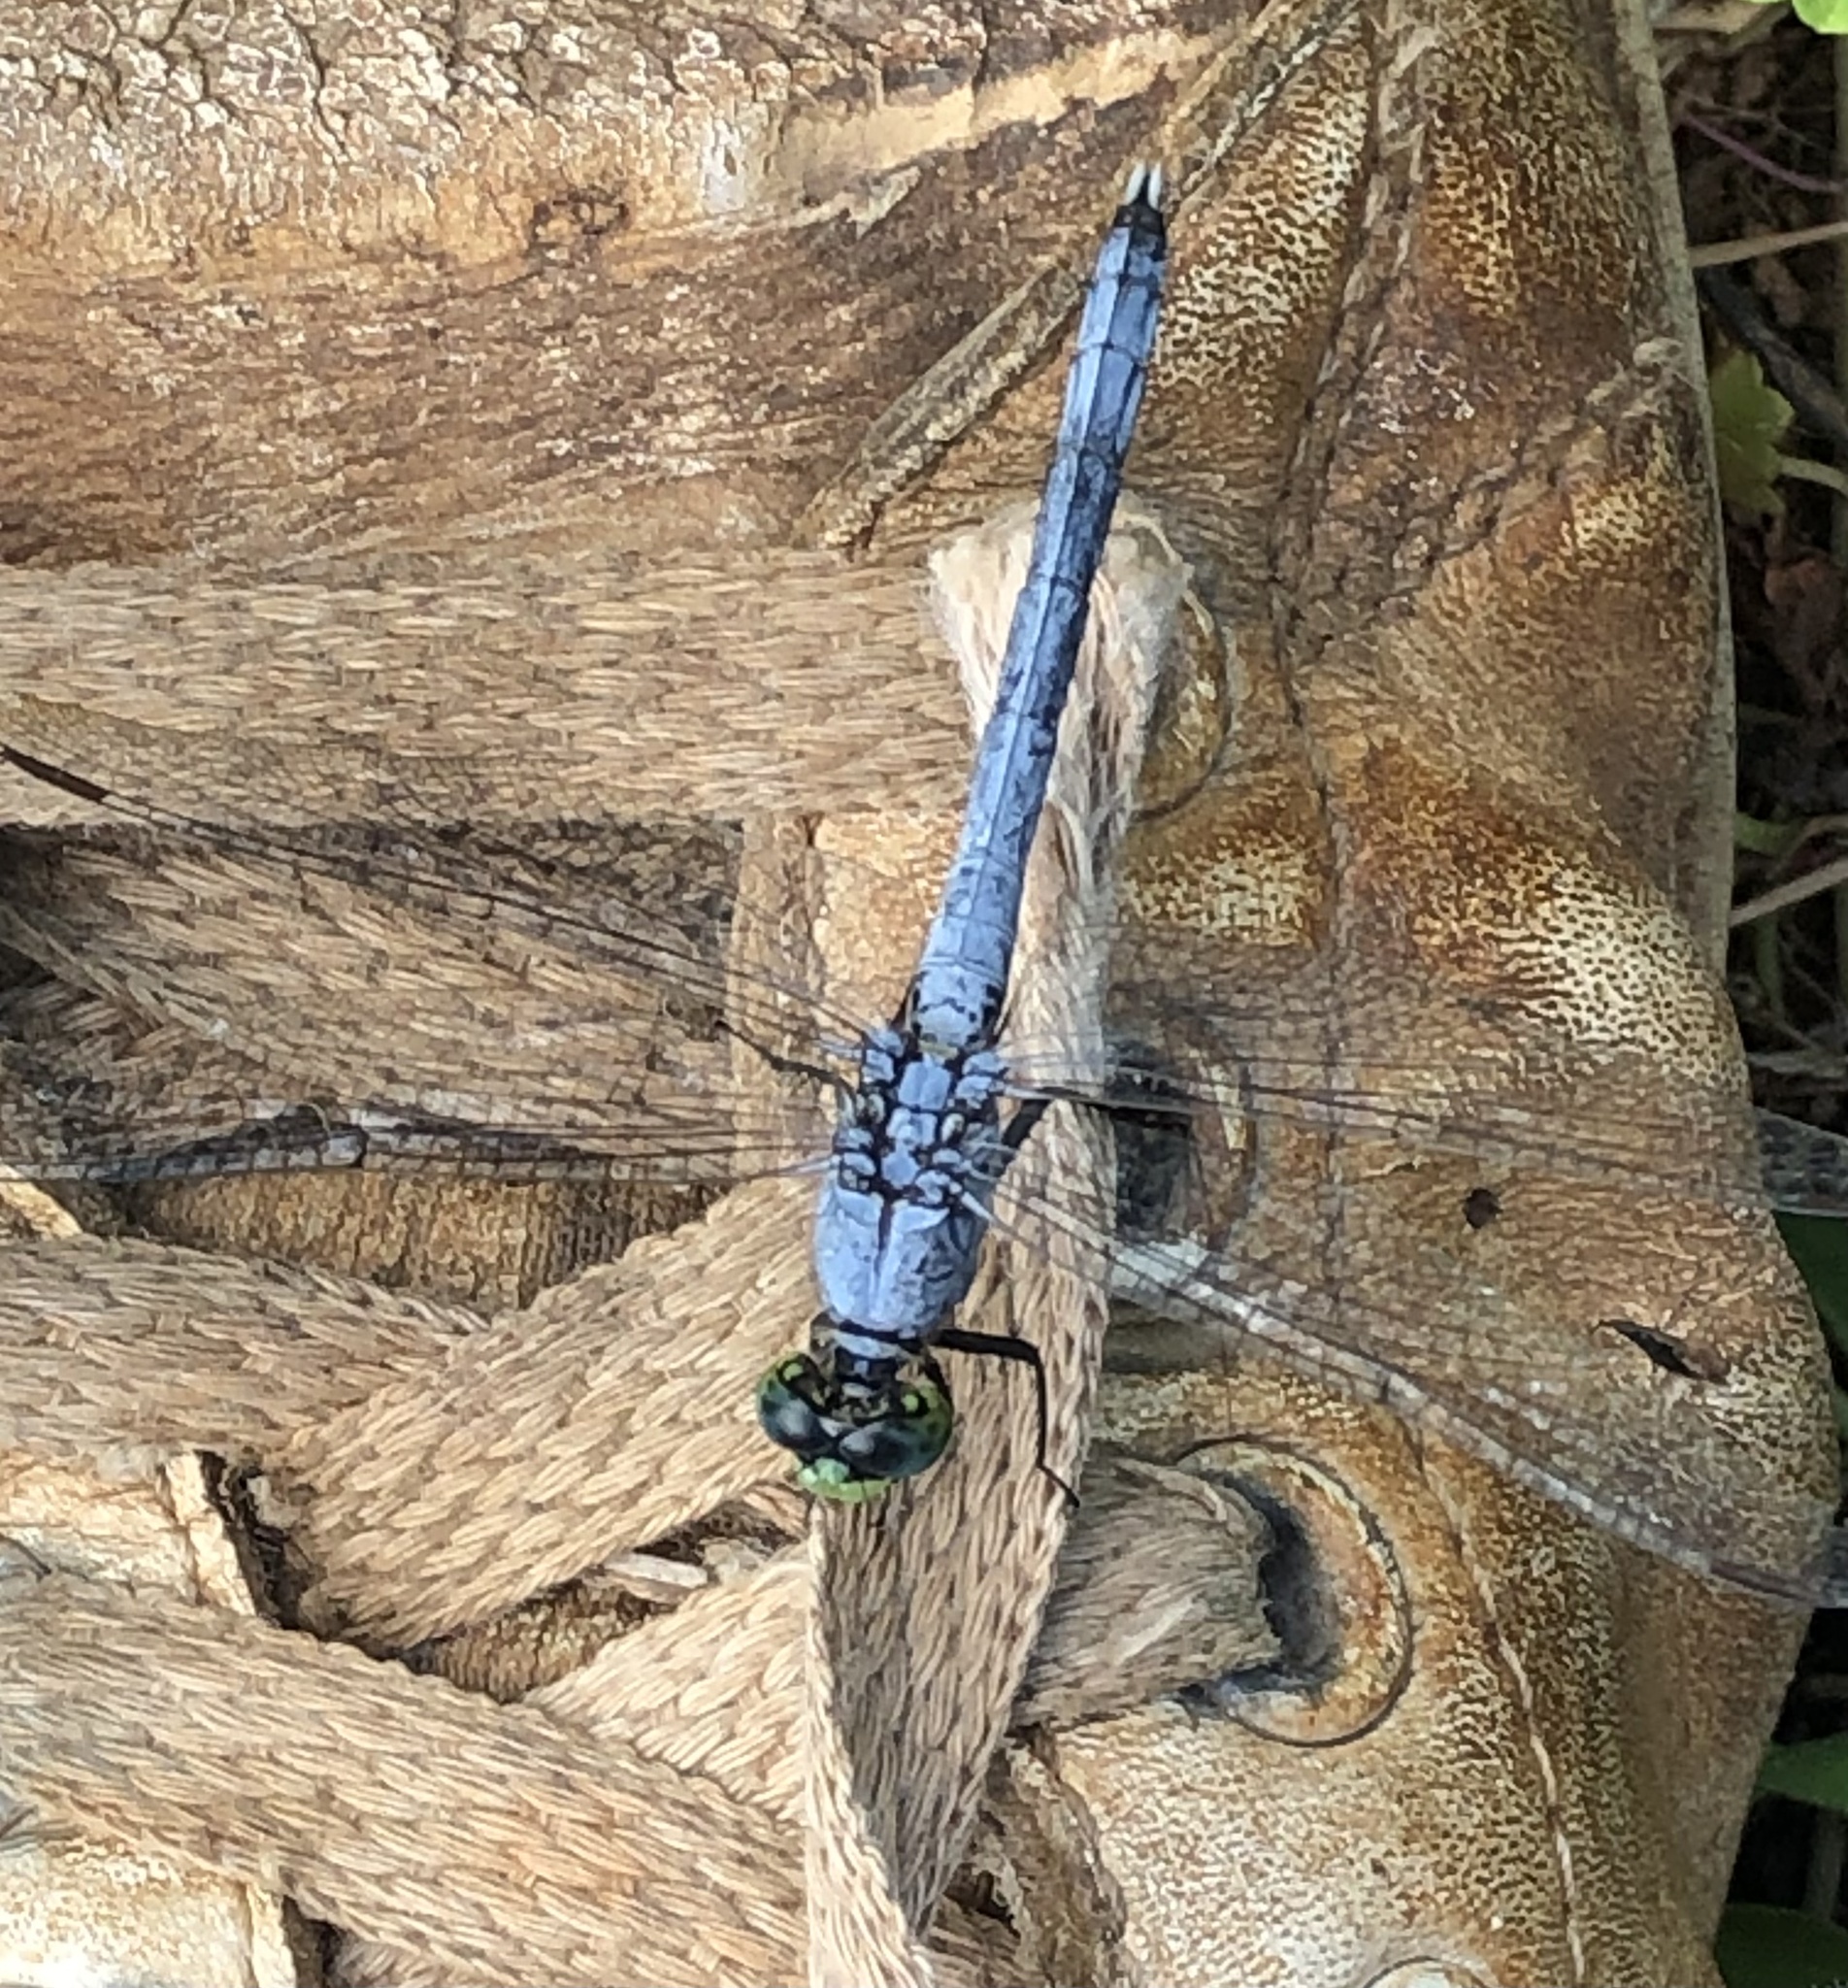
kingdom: Animalia
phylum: Arthropoda
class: Insecta
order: Odonata
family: Libellulidae
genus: Erythemis
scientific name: Erythemis simplicicollis
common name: Eastern pondhawk
